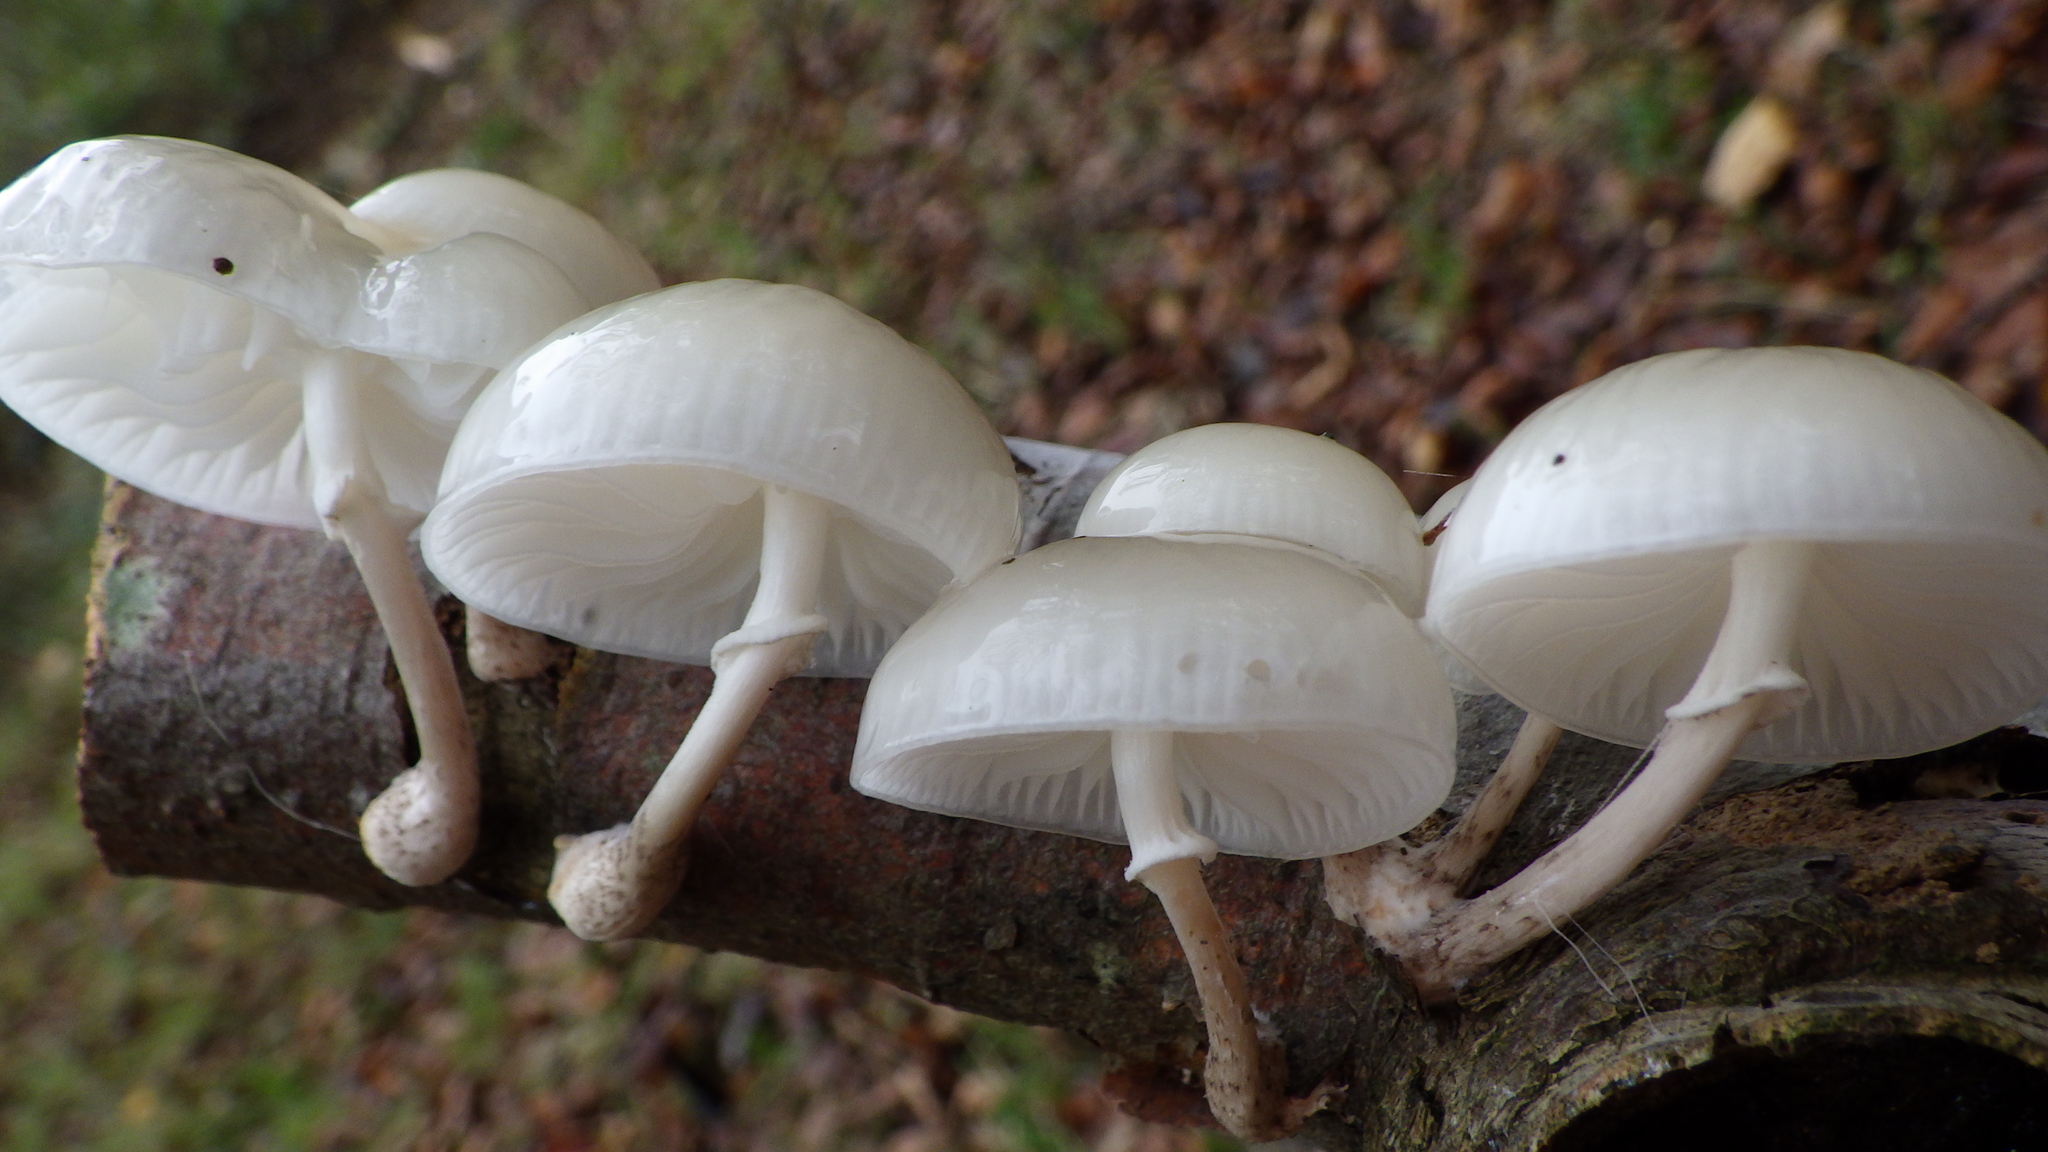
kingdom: Fungi
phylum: Basidiomycota
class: Agaricomycetes
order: Agaricales
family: Physalacriaceae
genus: Mucidula
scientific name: Mucidula mucida
